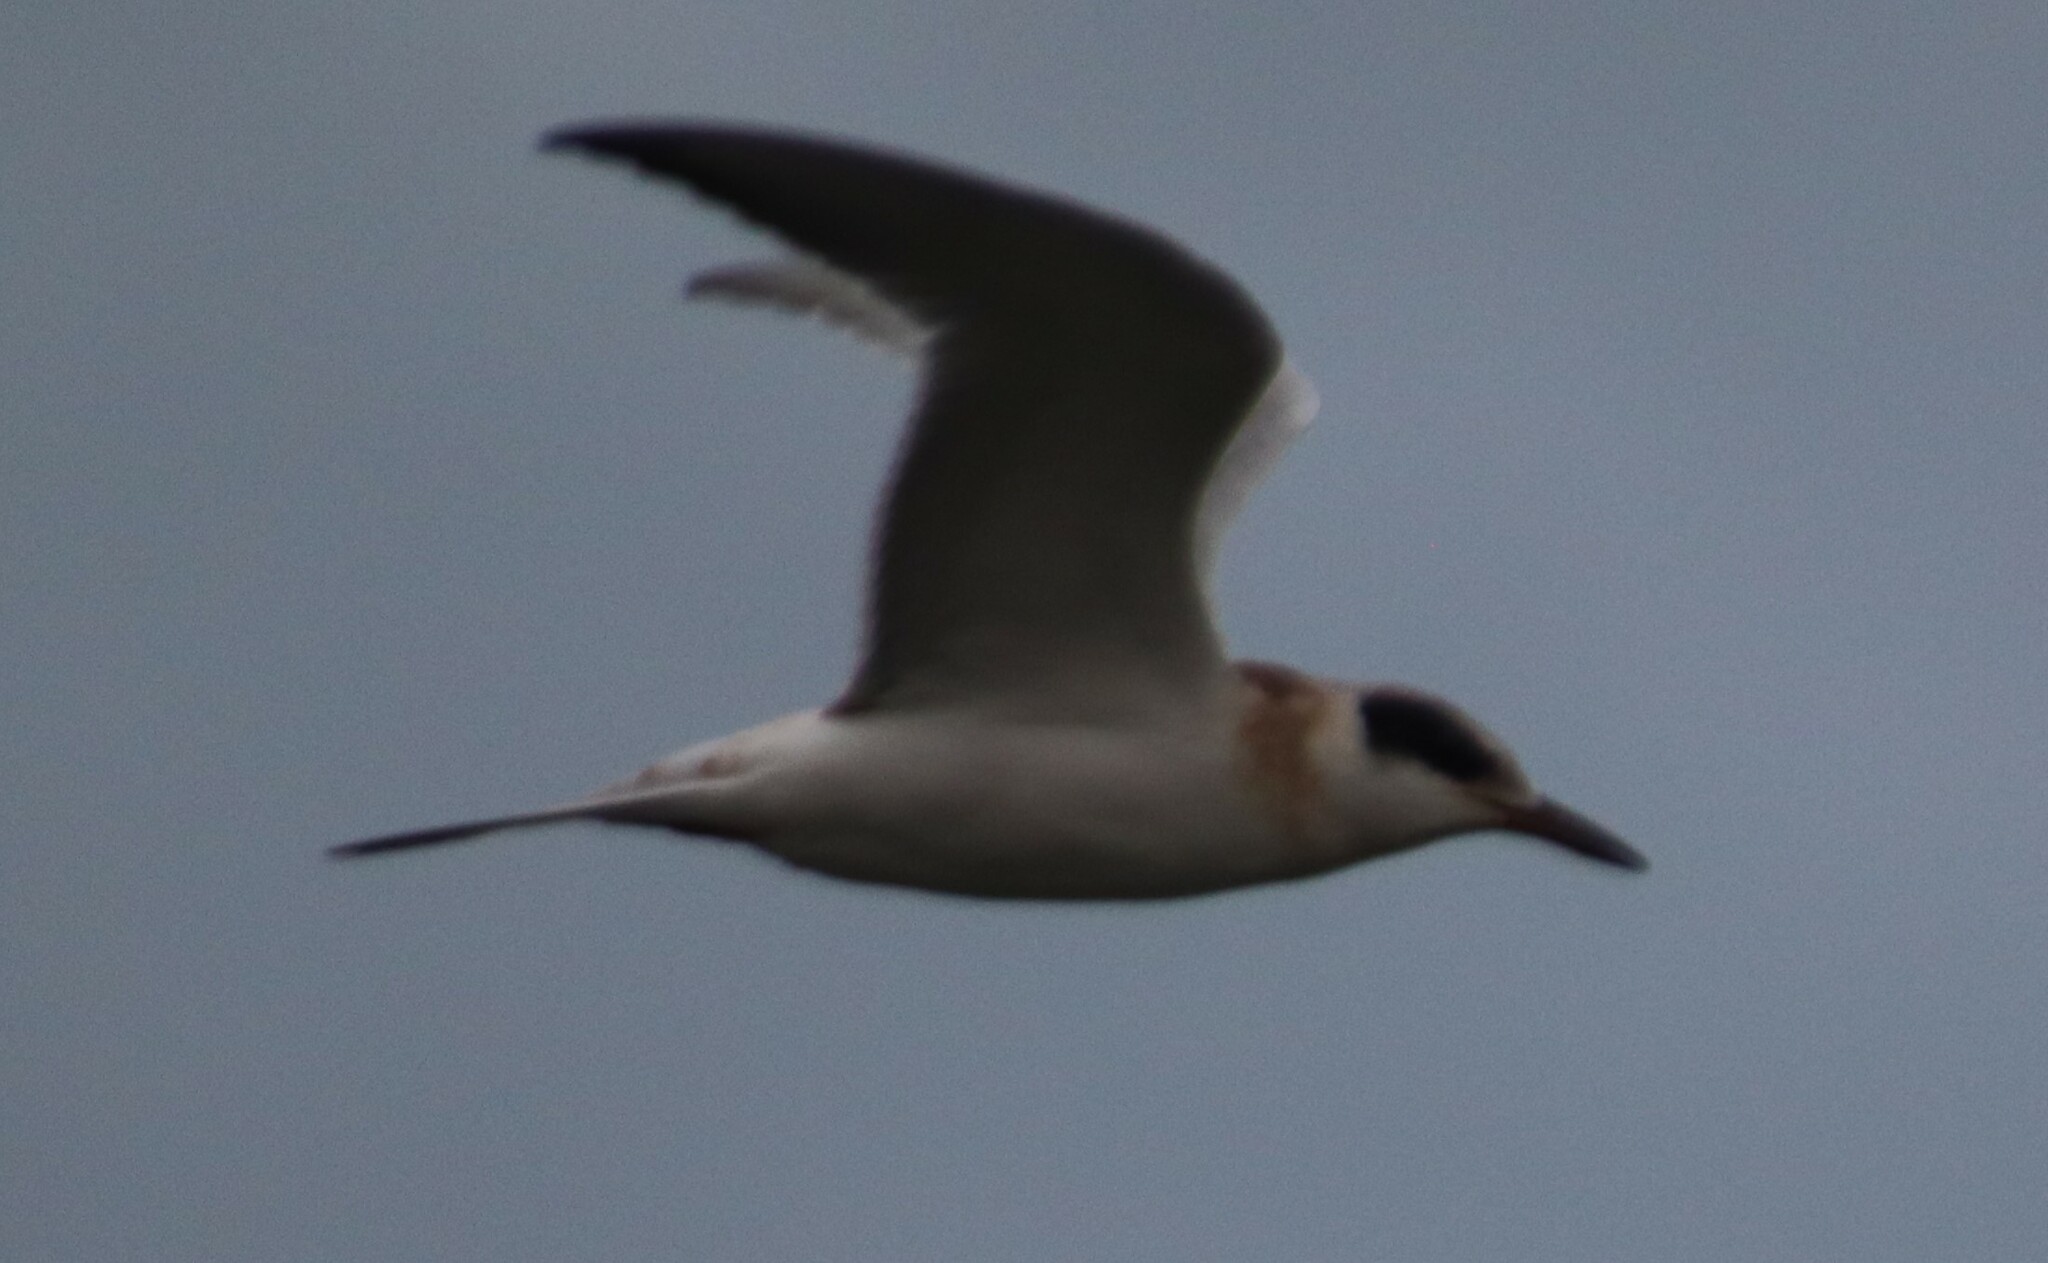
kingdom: Animalia
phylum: Chordata
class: Aves
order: Charadriiformes
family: Laridae
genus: Sterna
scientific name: Sterna forsteri
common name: Forster's tern
